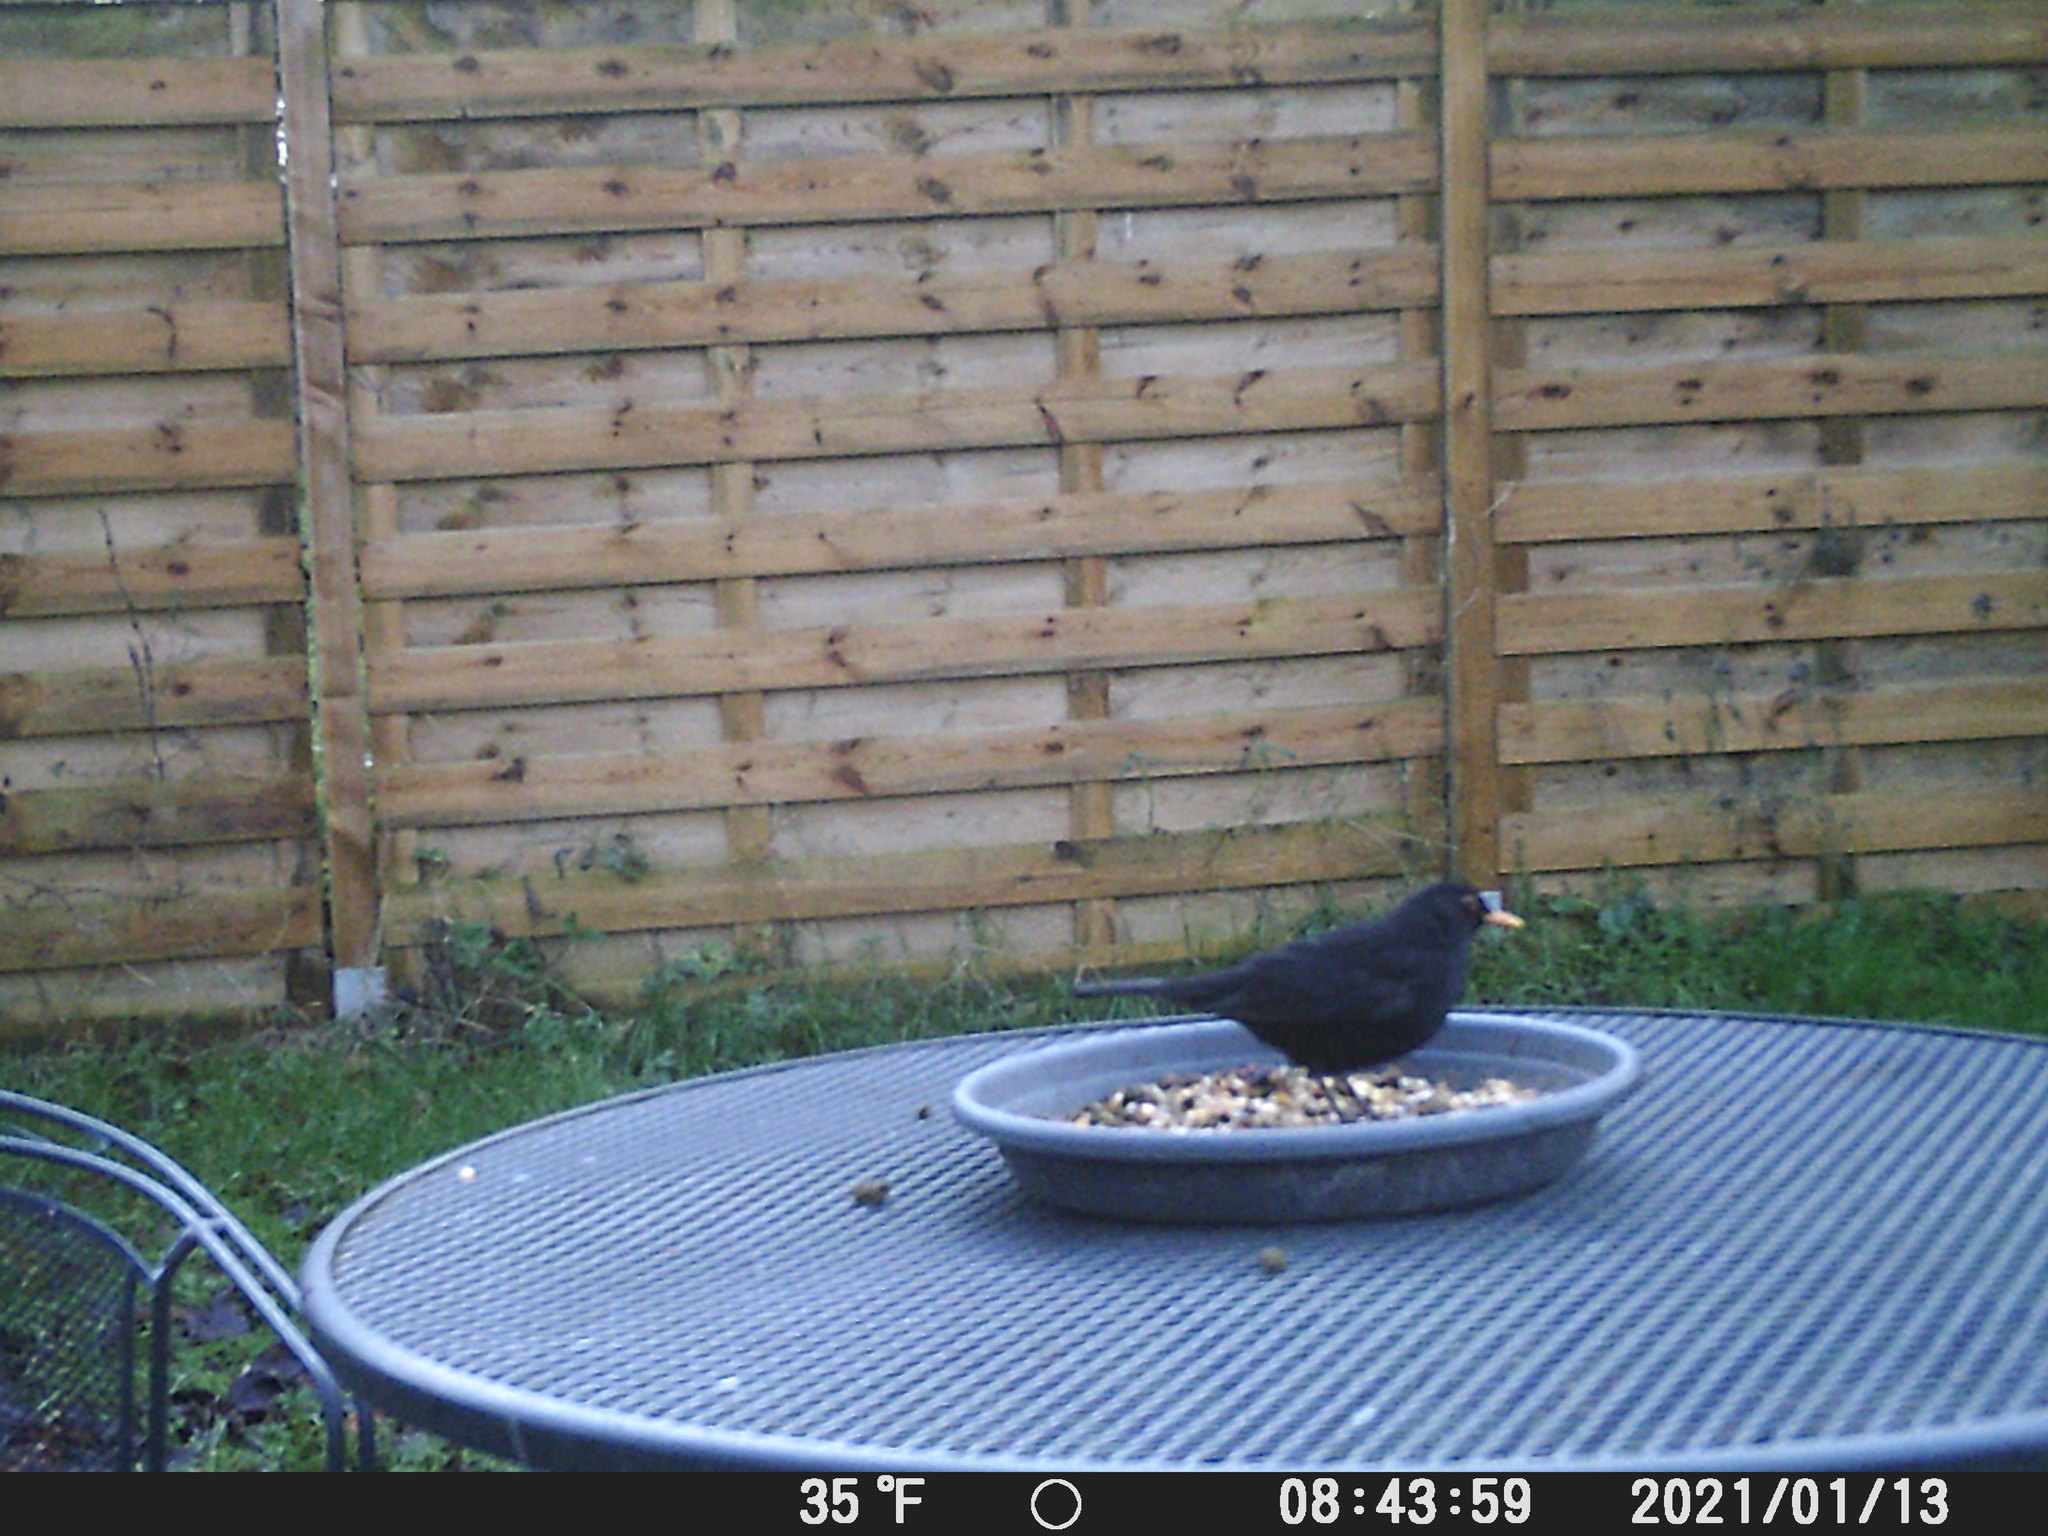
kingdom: Animalia
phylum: Chordata
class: Aves
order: Passeriformes
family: Turdidae
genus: Turdus
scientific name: Turdus merula
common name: Common blackbird
